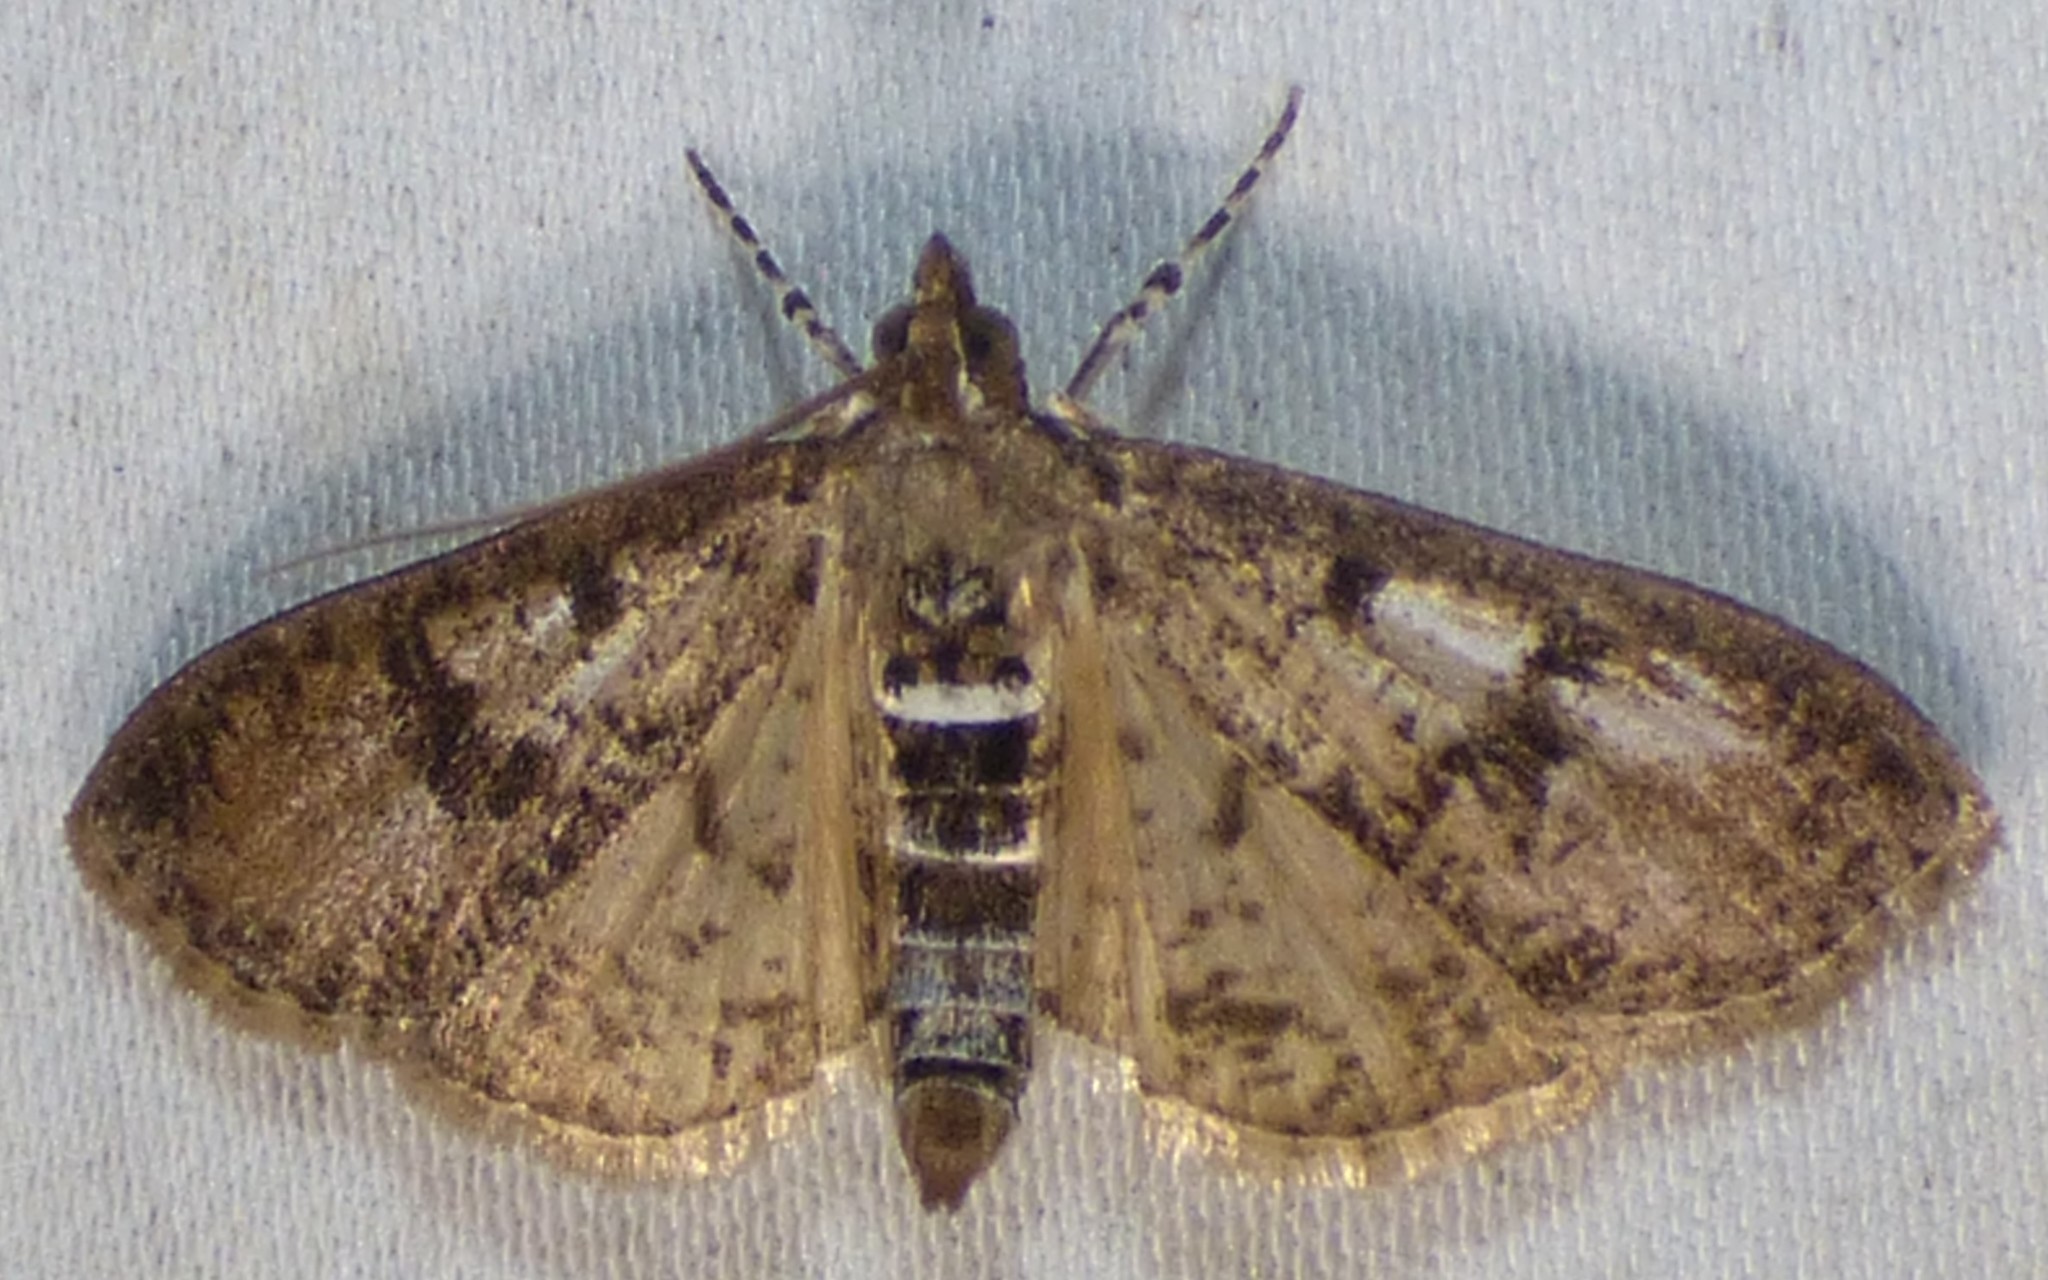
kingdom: Animalia
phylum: Arthropoda
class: Insecta
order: Lepidoptera
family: Crambidae
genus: Palpita
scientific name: Palpita magniferalis
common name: Splendid palpita moth
